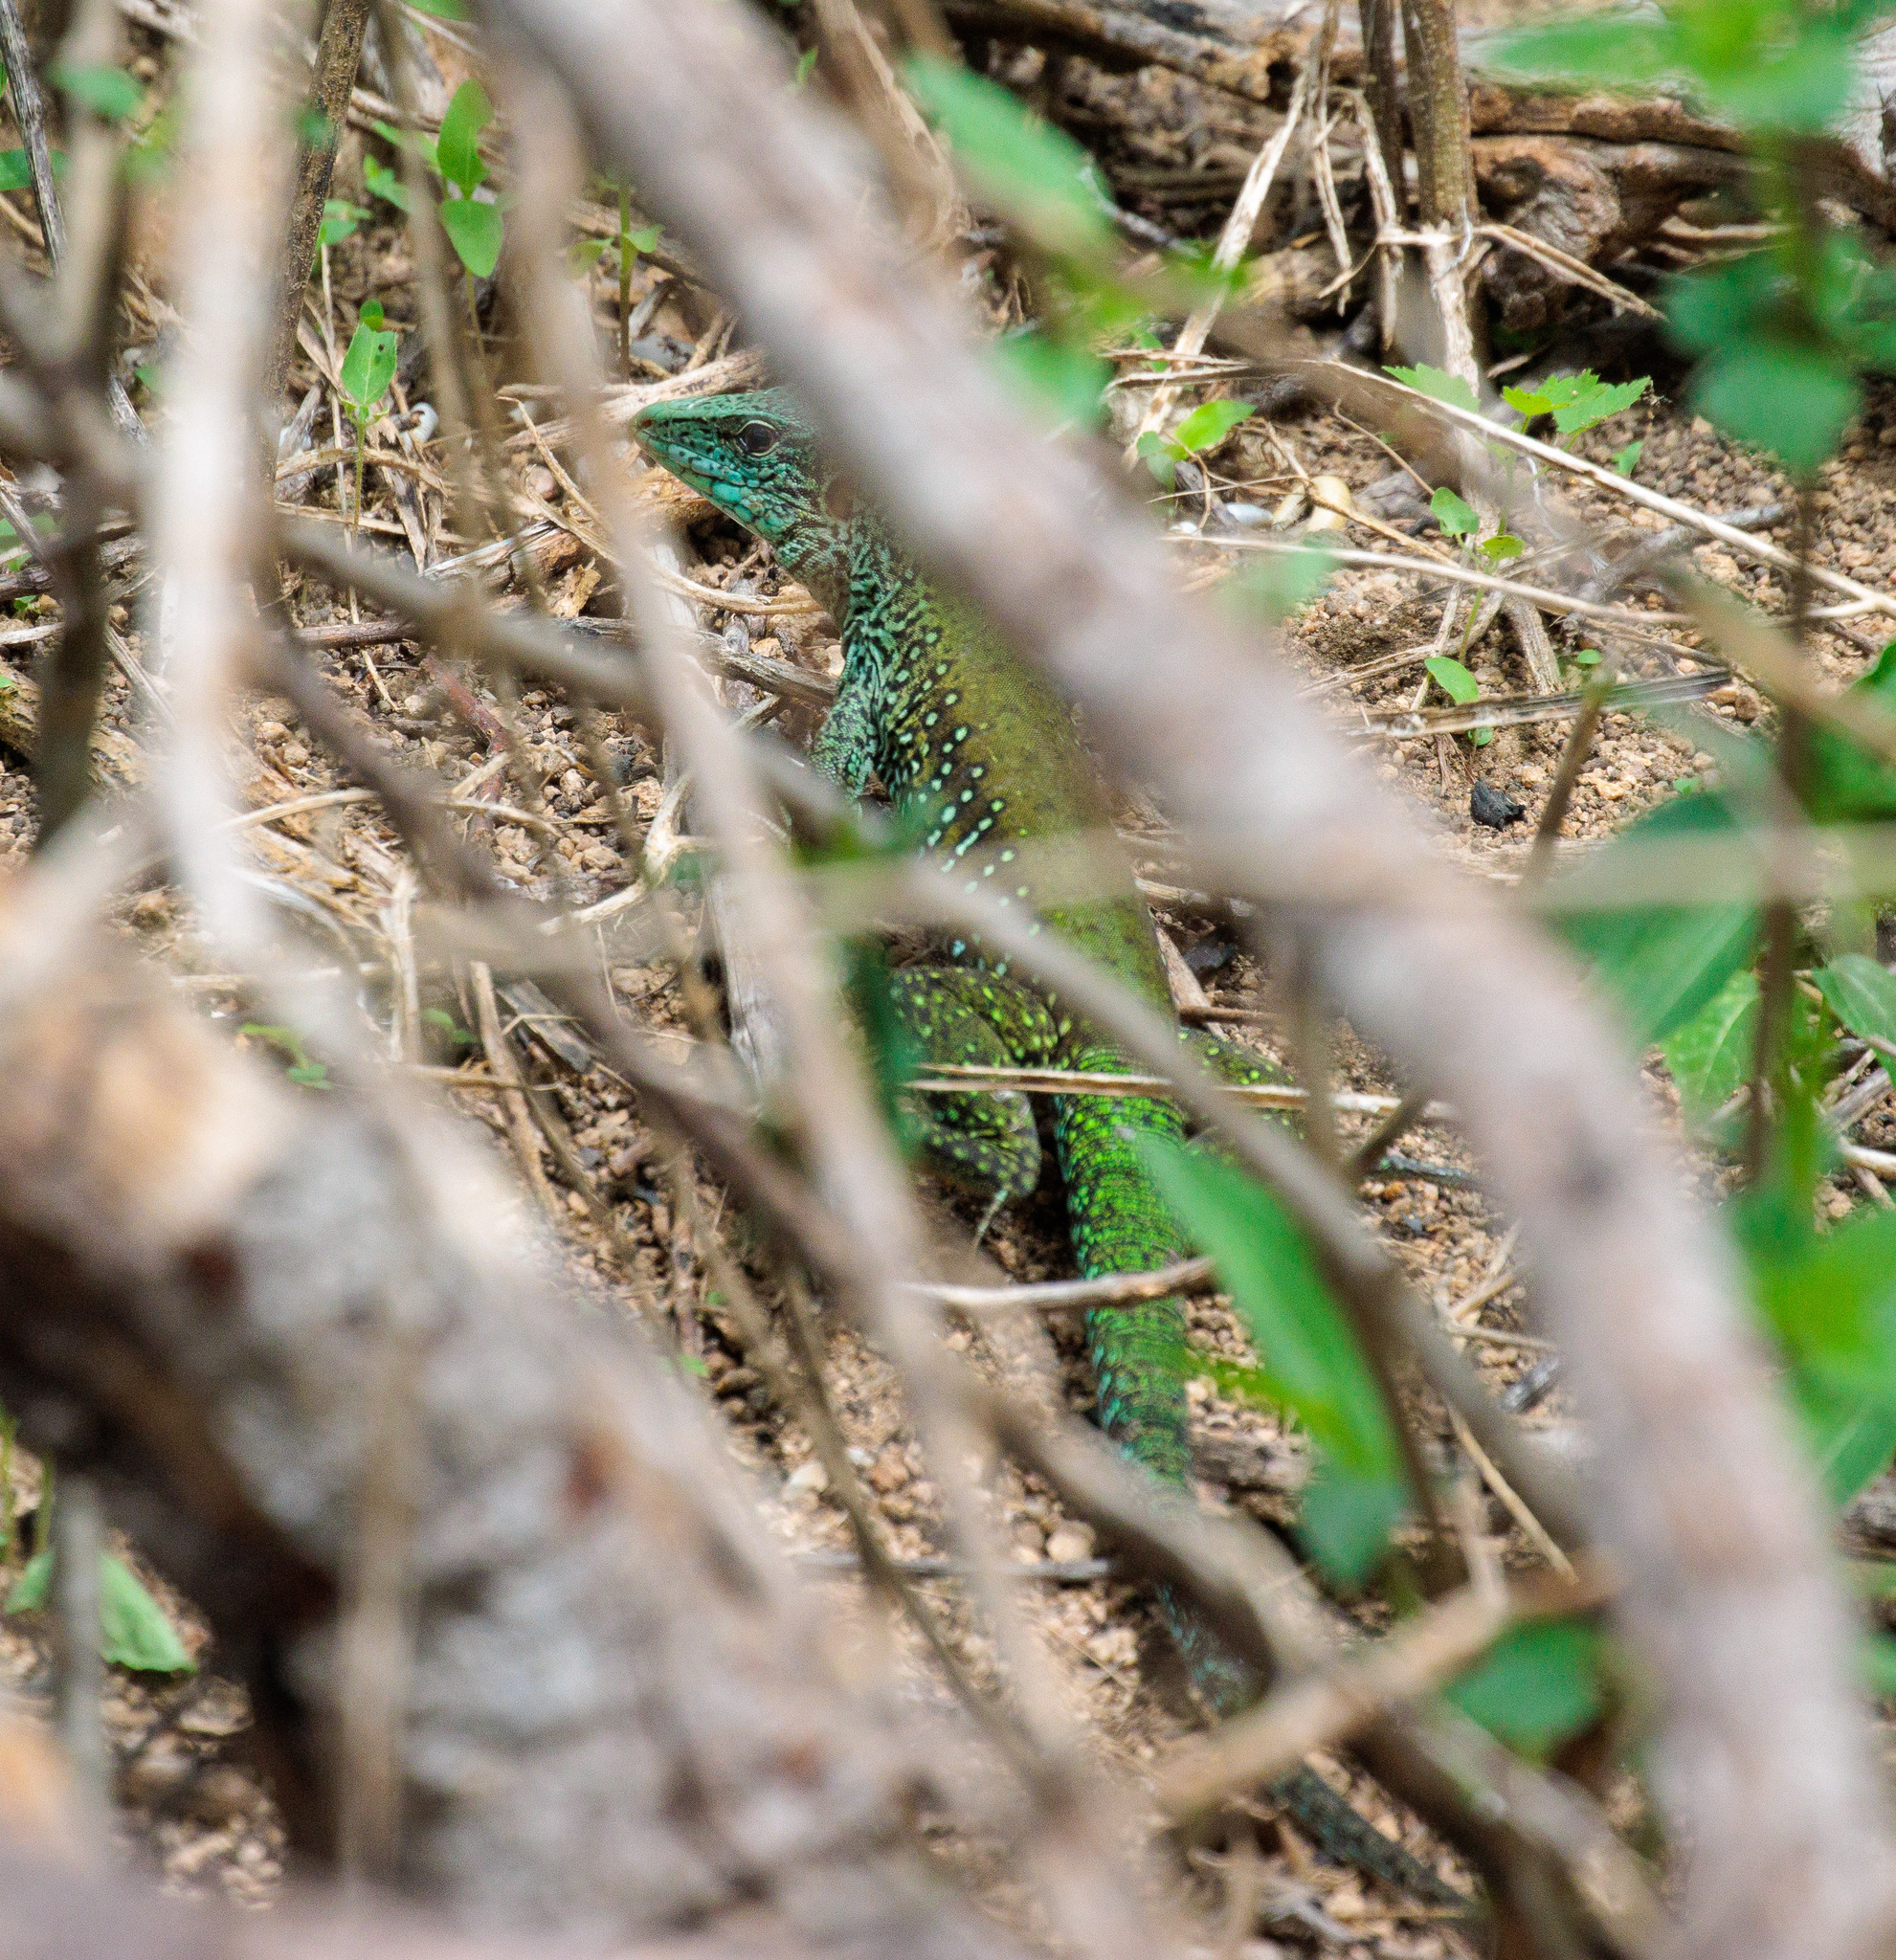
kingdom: Animalia
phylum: Chordata
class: Squamata
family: Teiidae
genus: Ameiva
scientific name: Ameiva ameiva
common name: Giant ameiva
